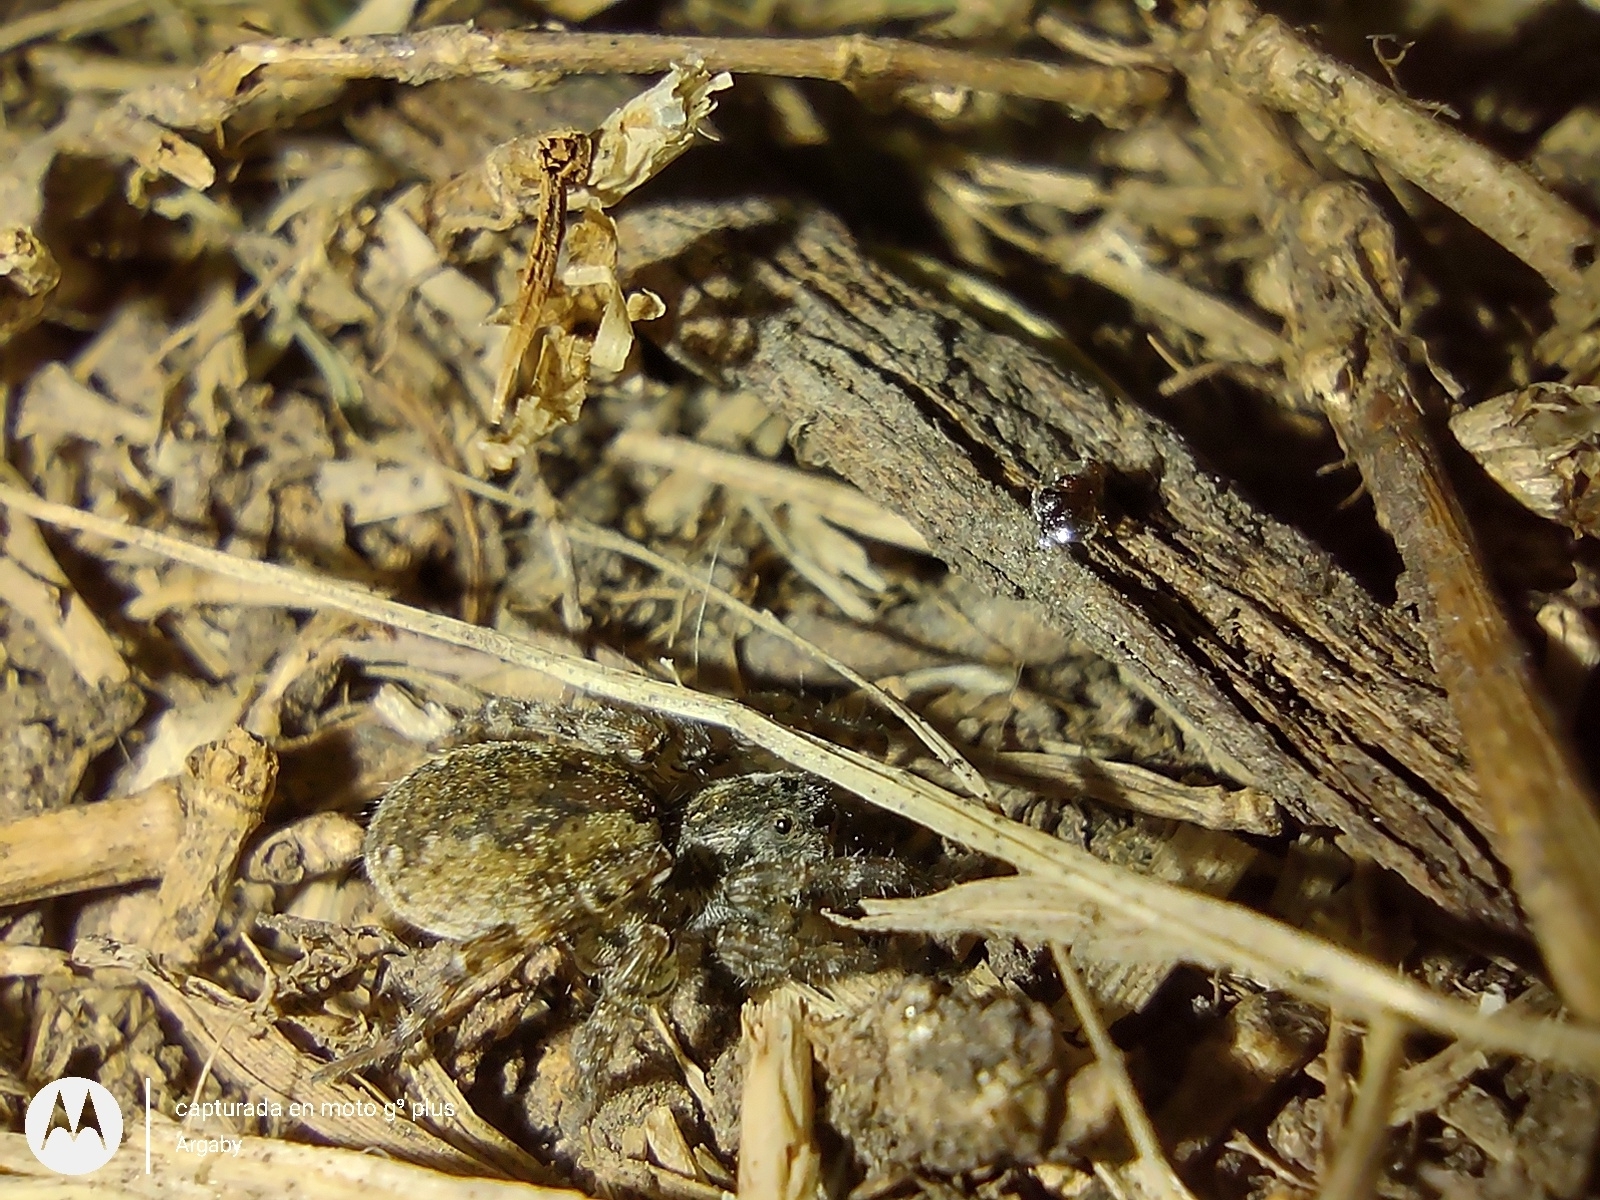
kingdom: Animalia
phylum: Arthropoda
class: Arachnida
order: Araneae
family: Lycosidae
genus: Paratrochosina
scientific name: Paratrochosina amica
